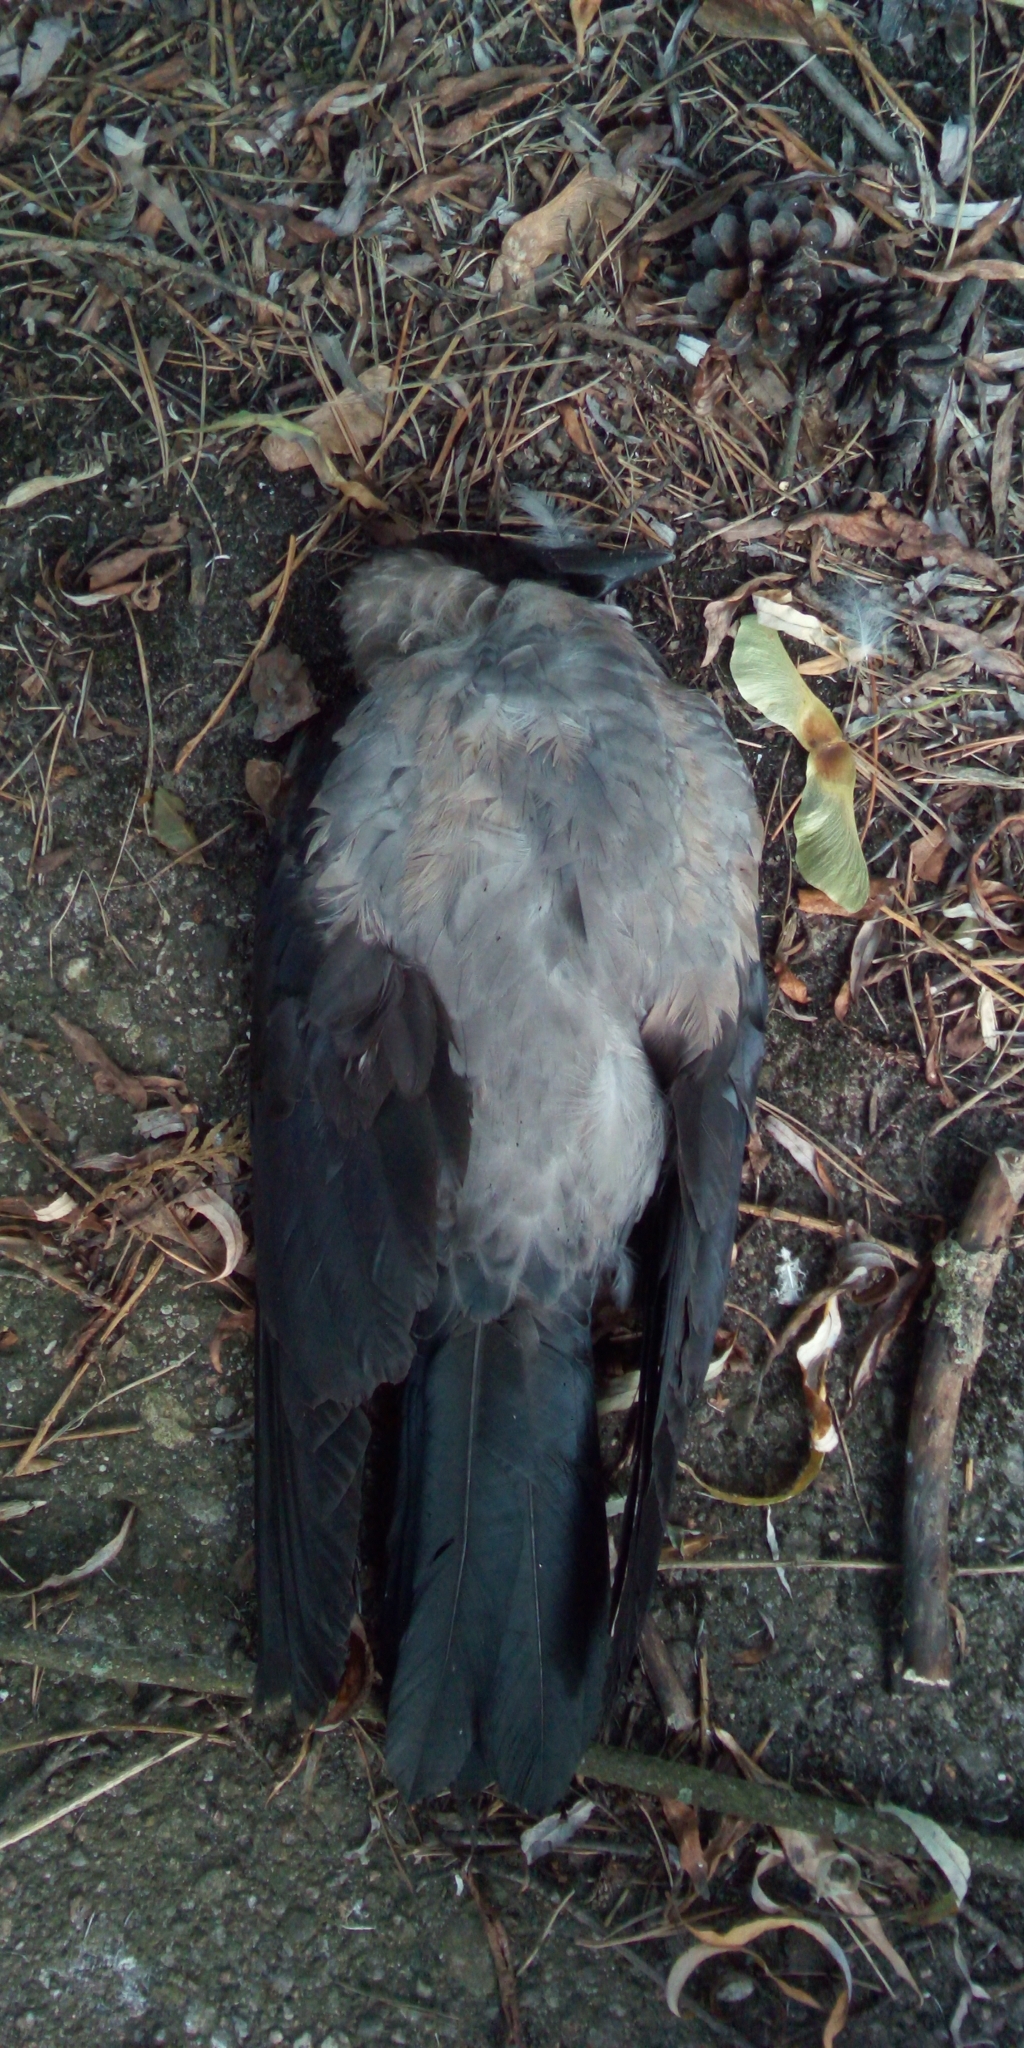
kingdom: Animalia
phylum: Chordata
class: Aves
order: Passeriformes
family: Corvidae
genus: Corvus
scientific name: Corvus cornix
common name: Hooded crow
